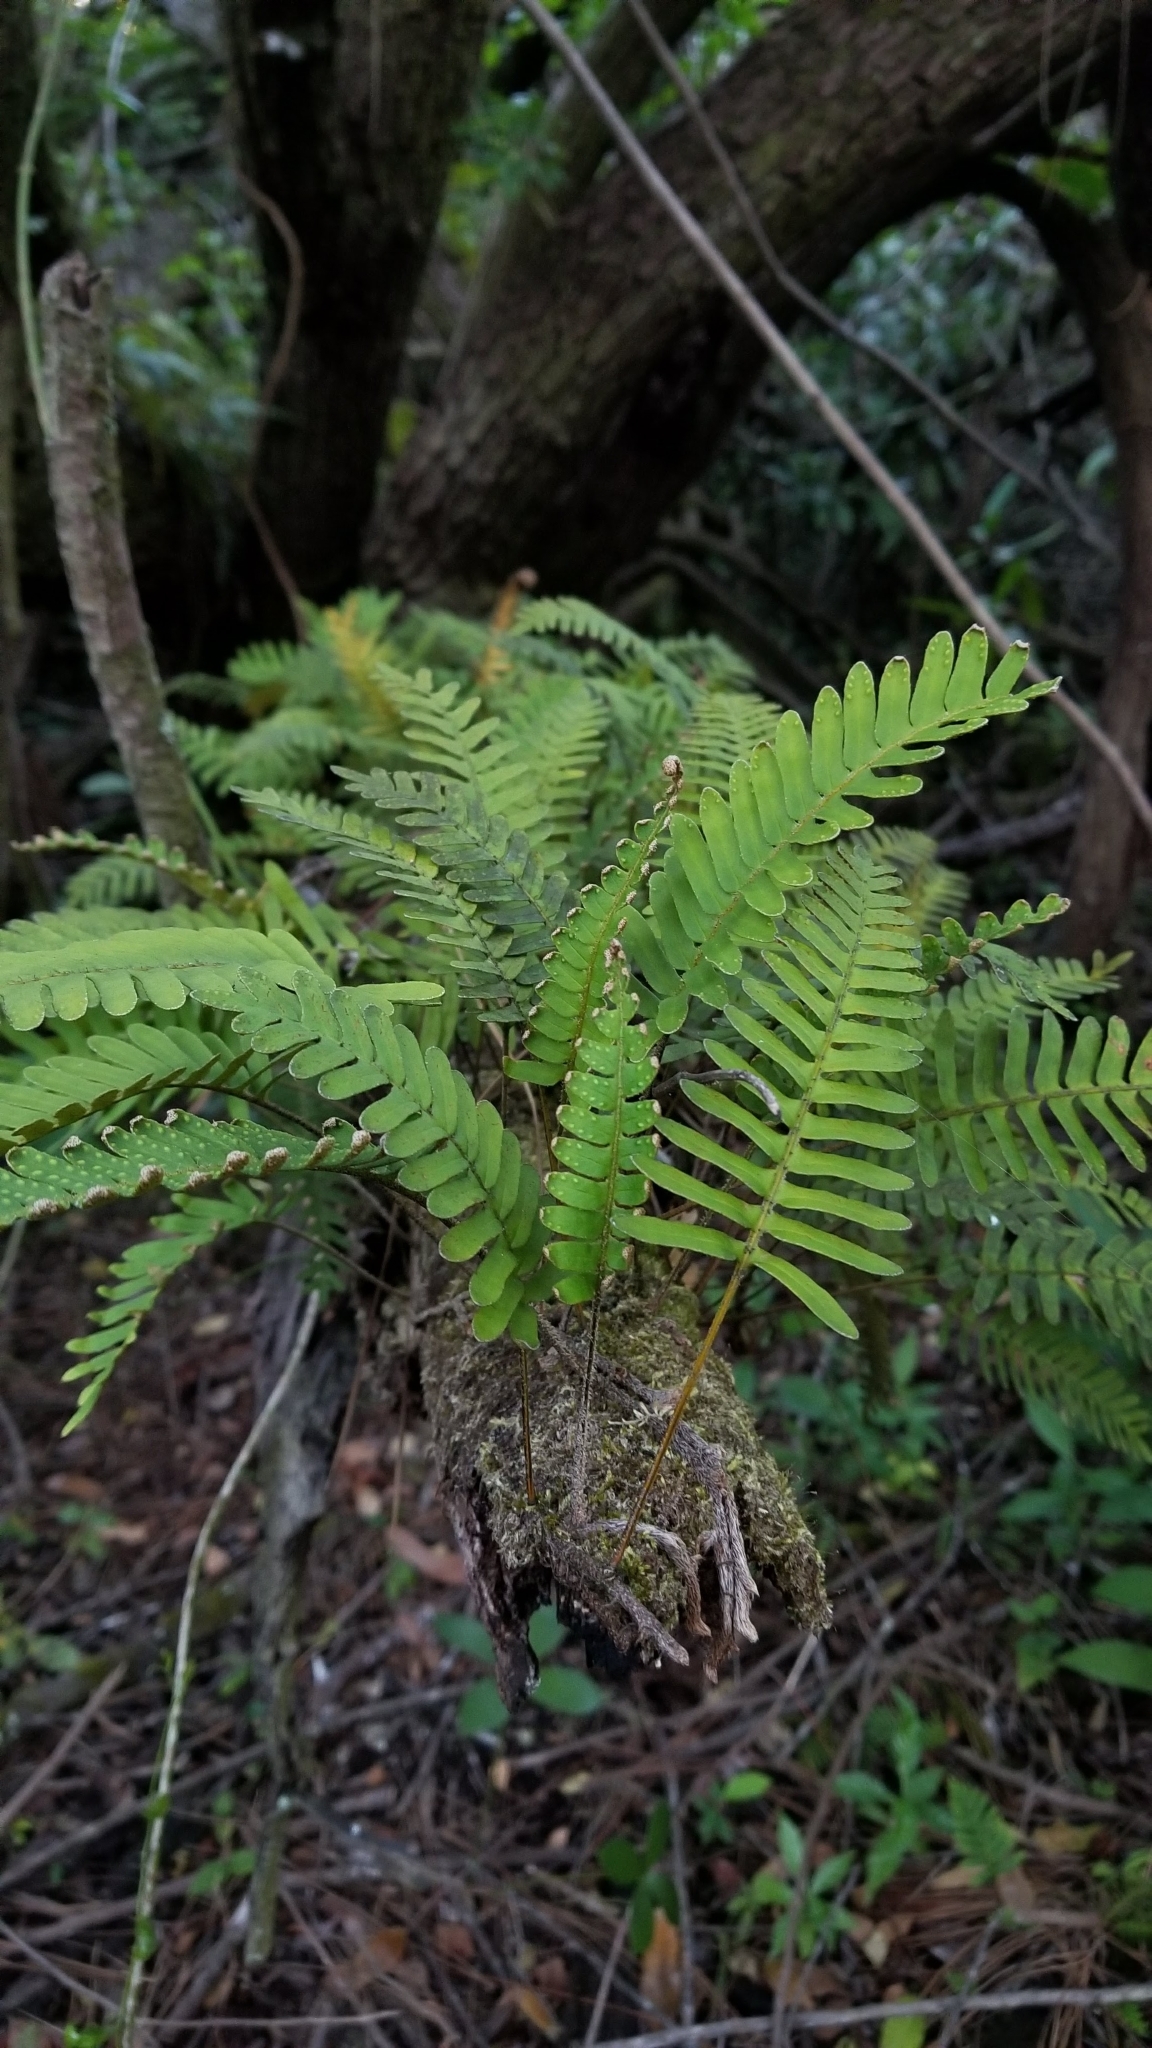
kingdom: Plantae
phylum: Tracheophyta
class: Polypodiopsida
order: Polypodiales
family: Polypodiaceae
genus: Pleopeltis
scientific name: Pleopeltis michauxiana
